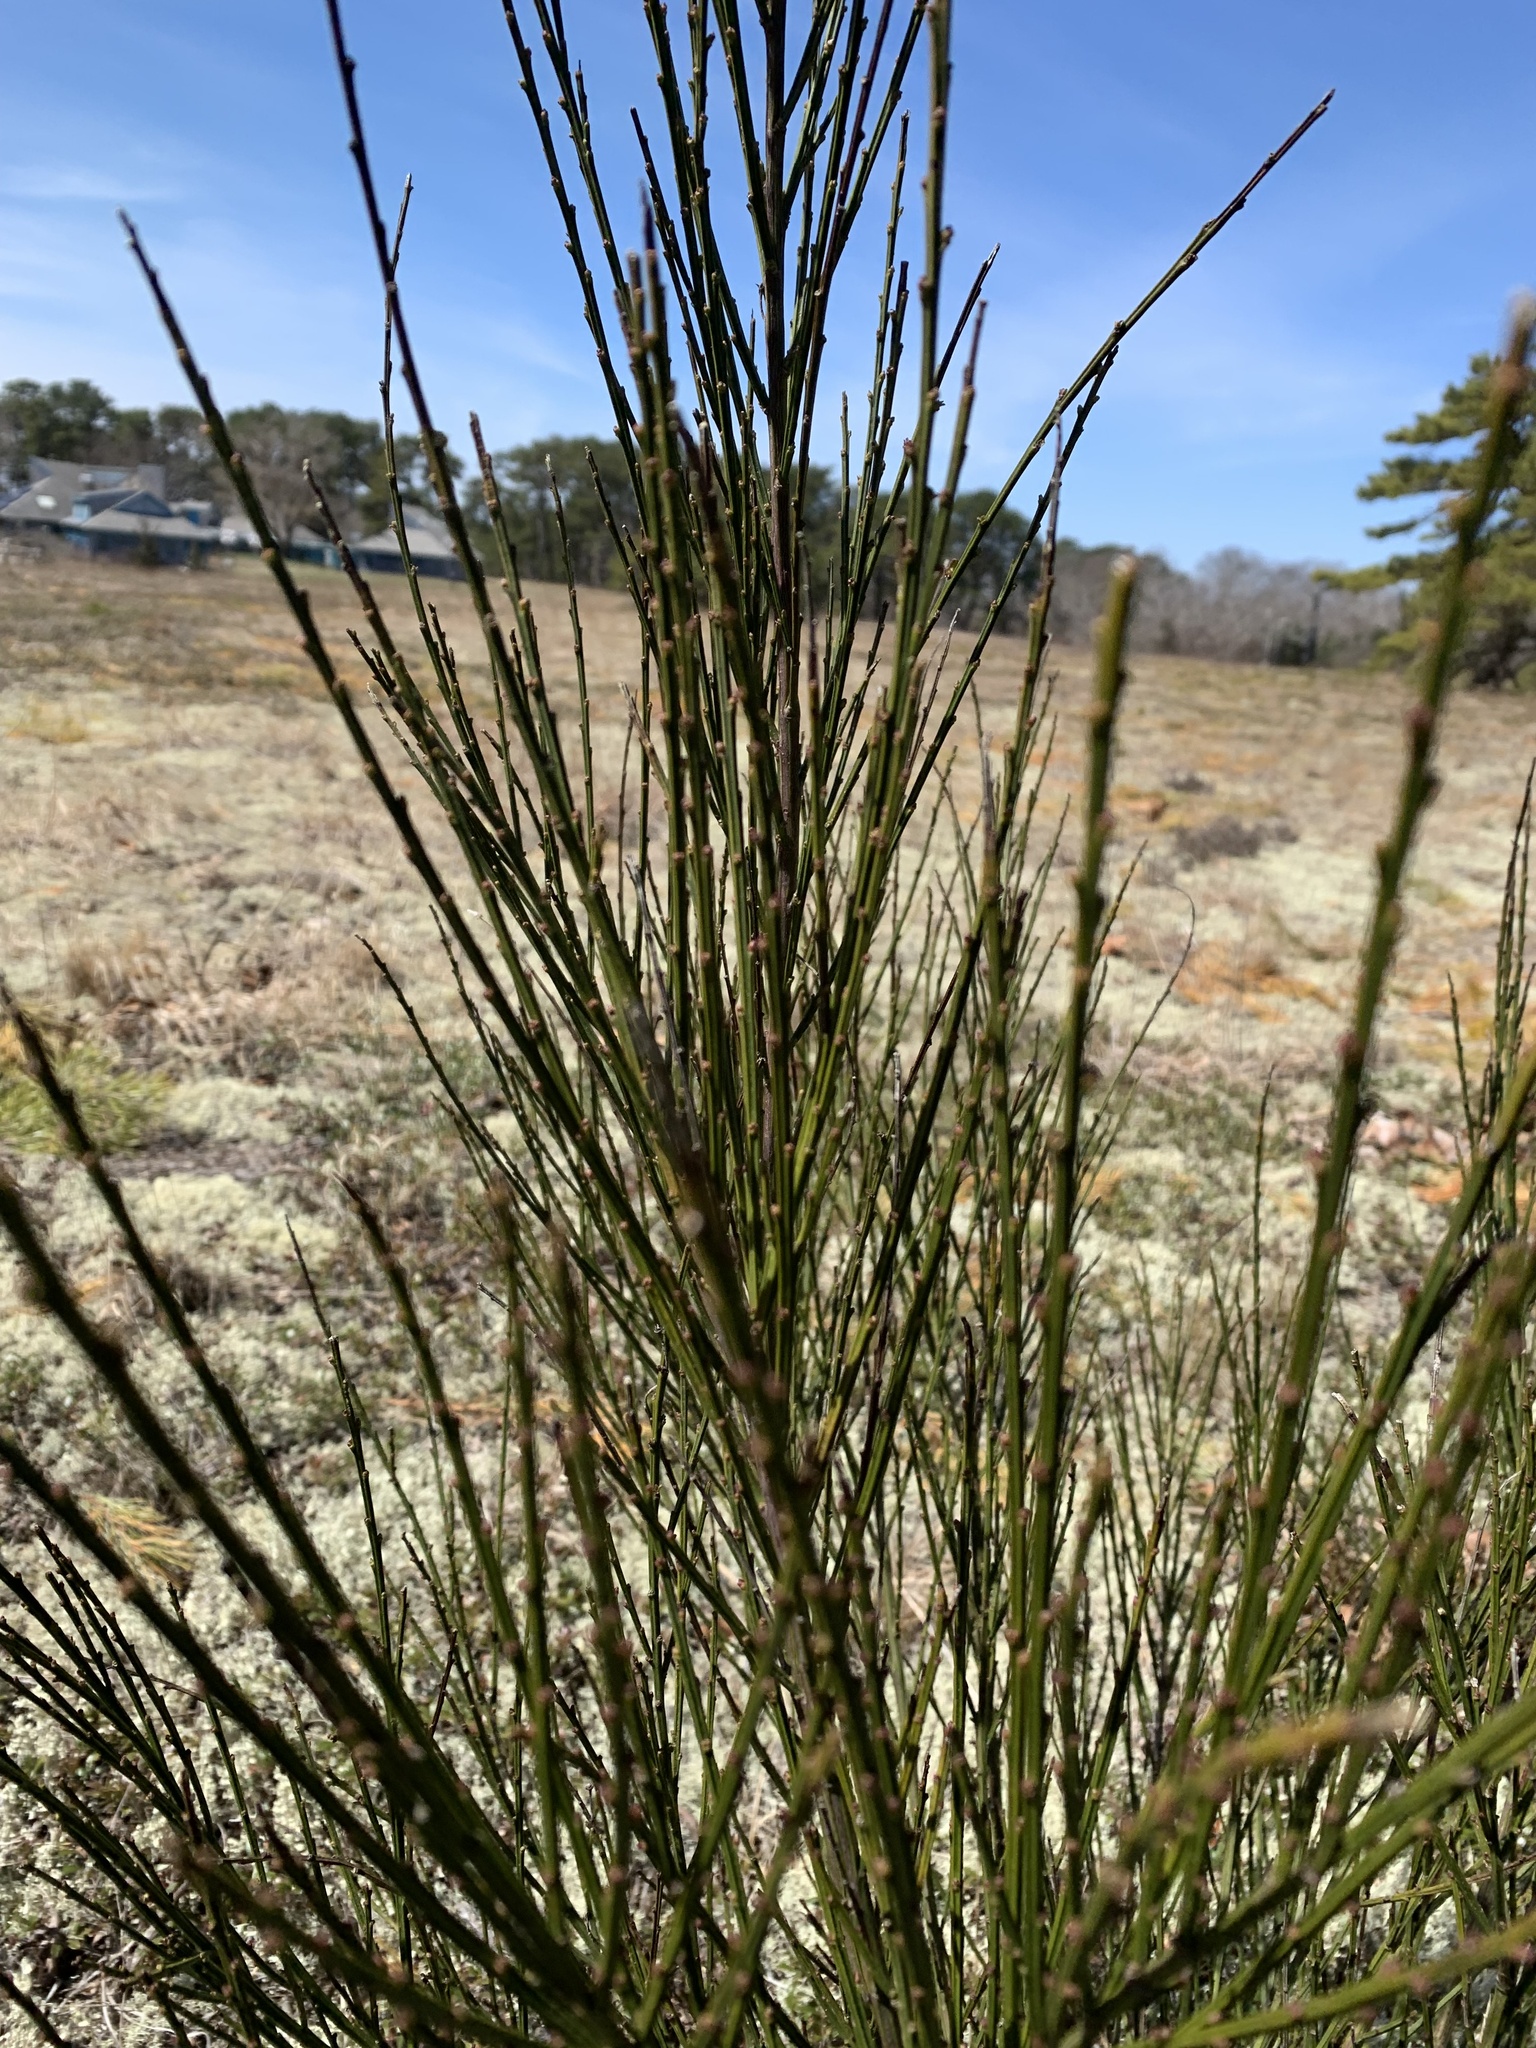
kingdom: Plantae
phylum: Tracheophyta
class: Magnoliopsida
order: Fabales
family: Fabaceae
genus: Cytisus
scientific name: Cytisus scoparius
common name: Scotch broom
